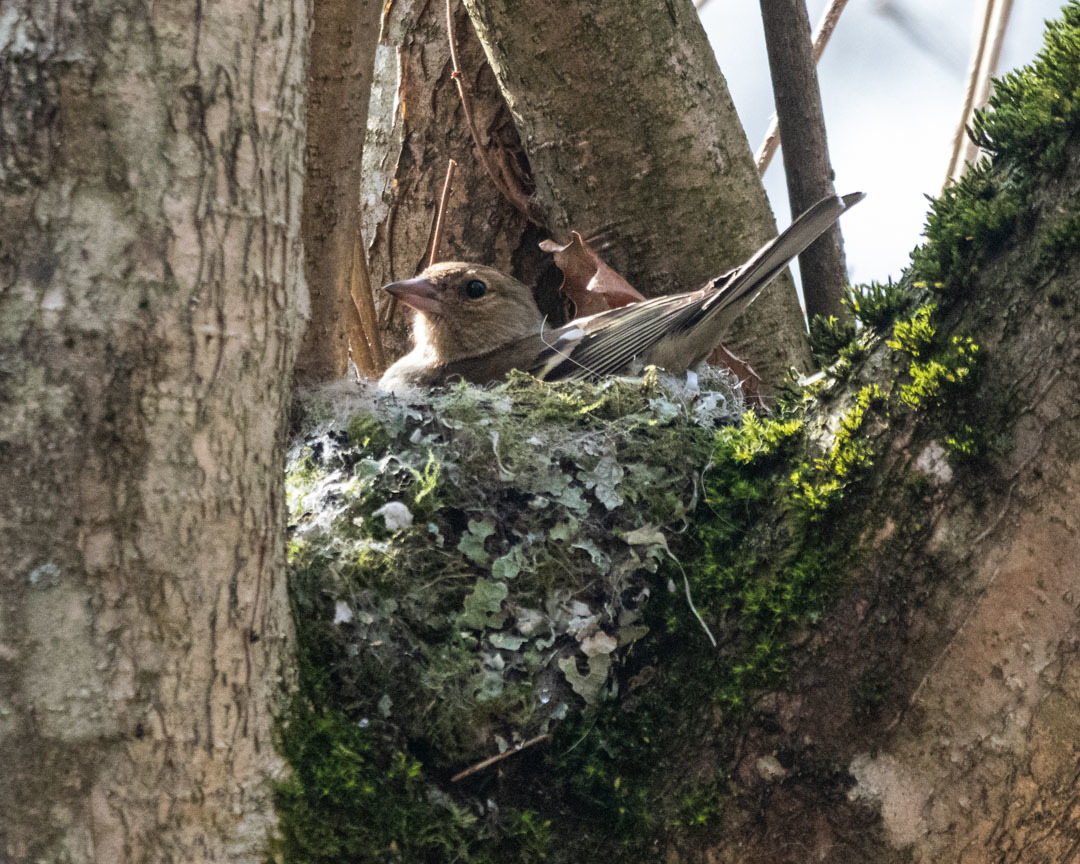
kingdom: Animalia
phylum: Chordata
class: Aves
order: Passeriformes
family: Fringillidae
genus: Fringilla
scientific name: Fringilla coelebs
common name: Common chaffinch
